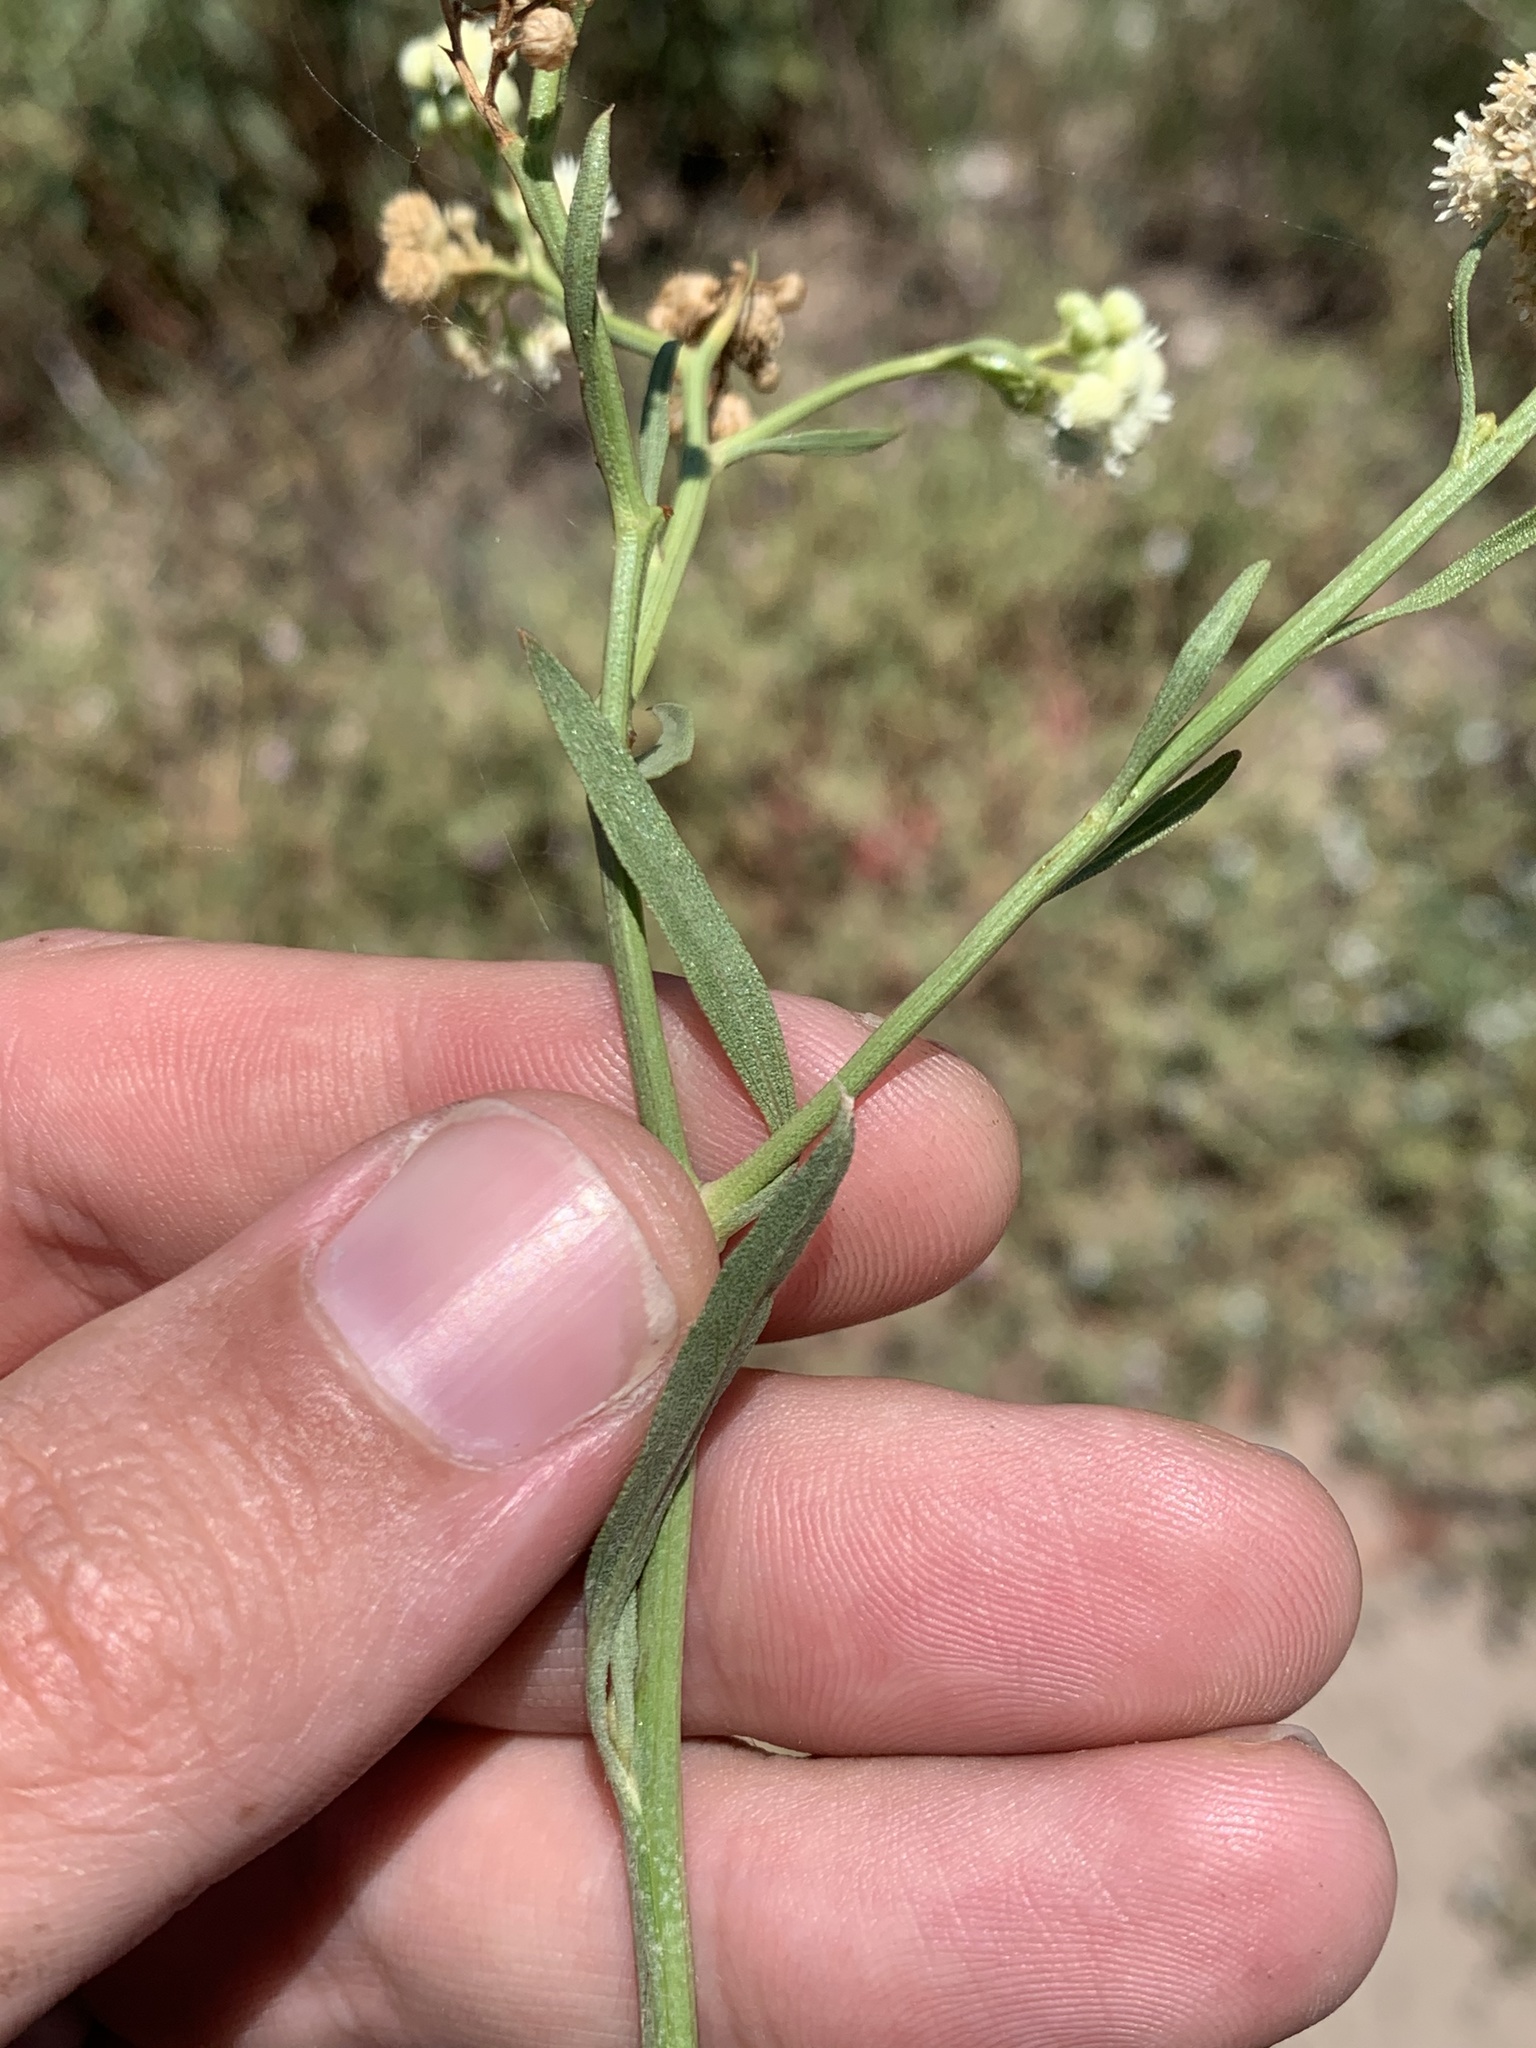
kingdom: Plantae
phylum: Tracheophyta
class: Magnoliopsida
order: Asterales
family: Asteraceae
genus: Baccharis
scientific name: Baccharis glutinosa
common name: Saltmarsh baccharis
